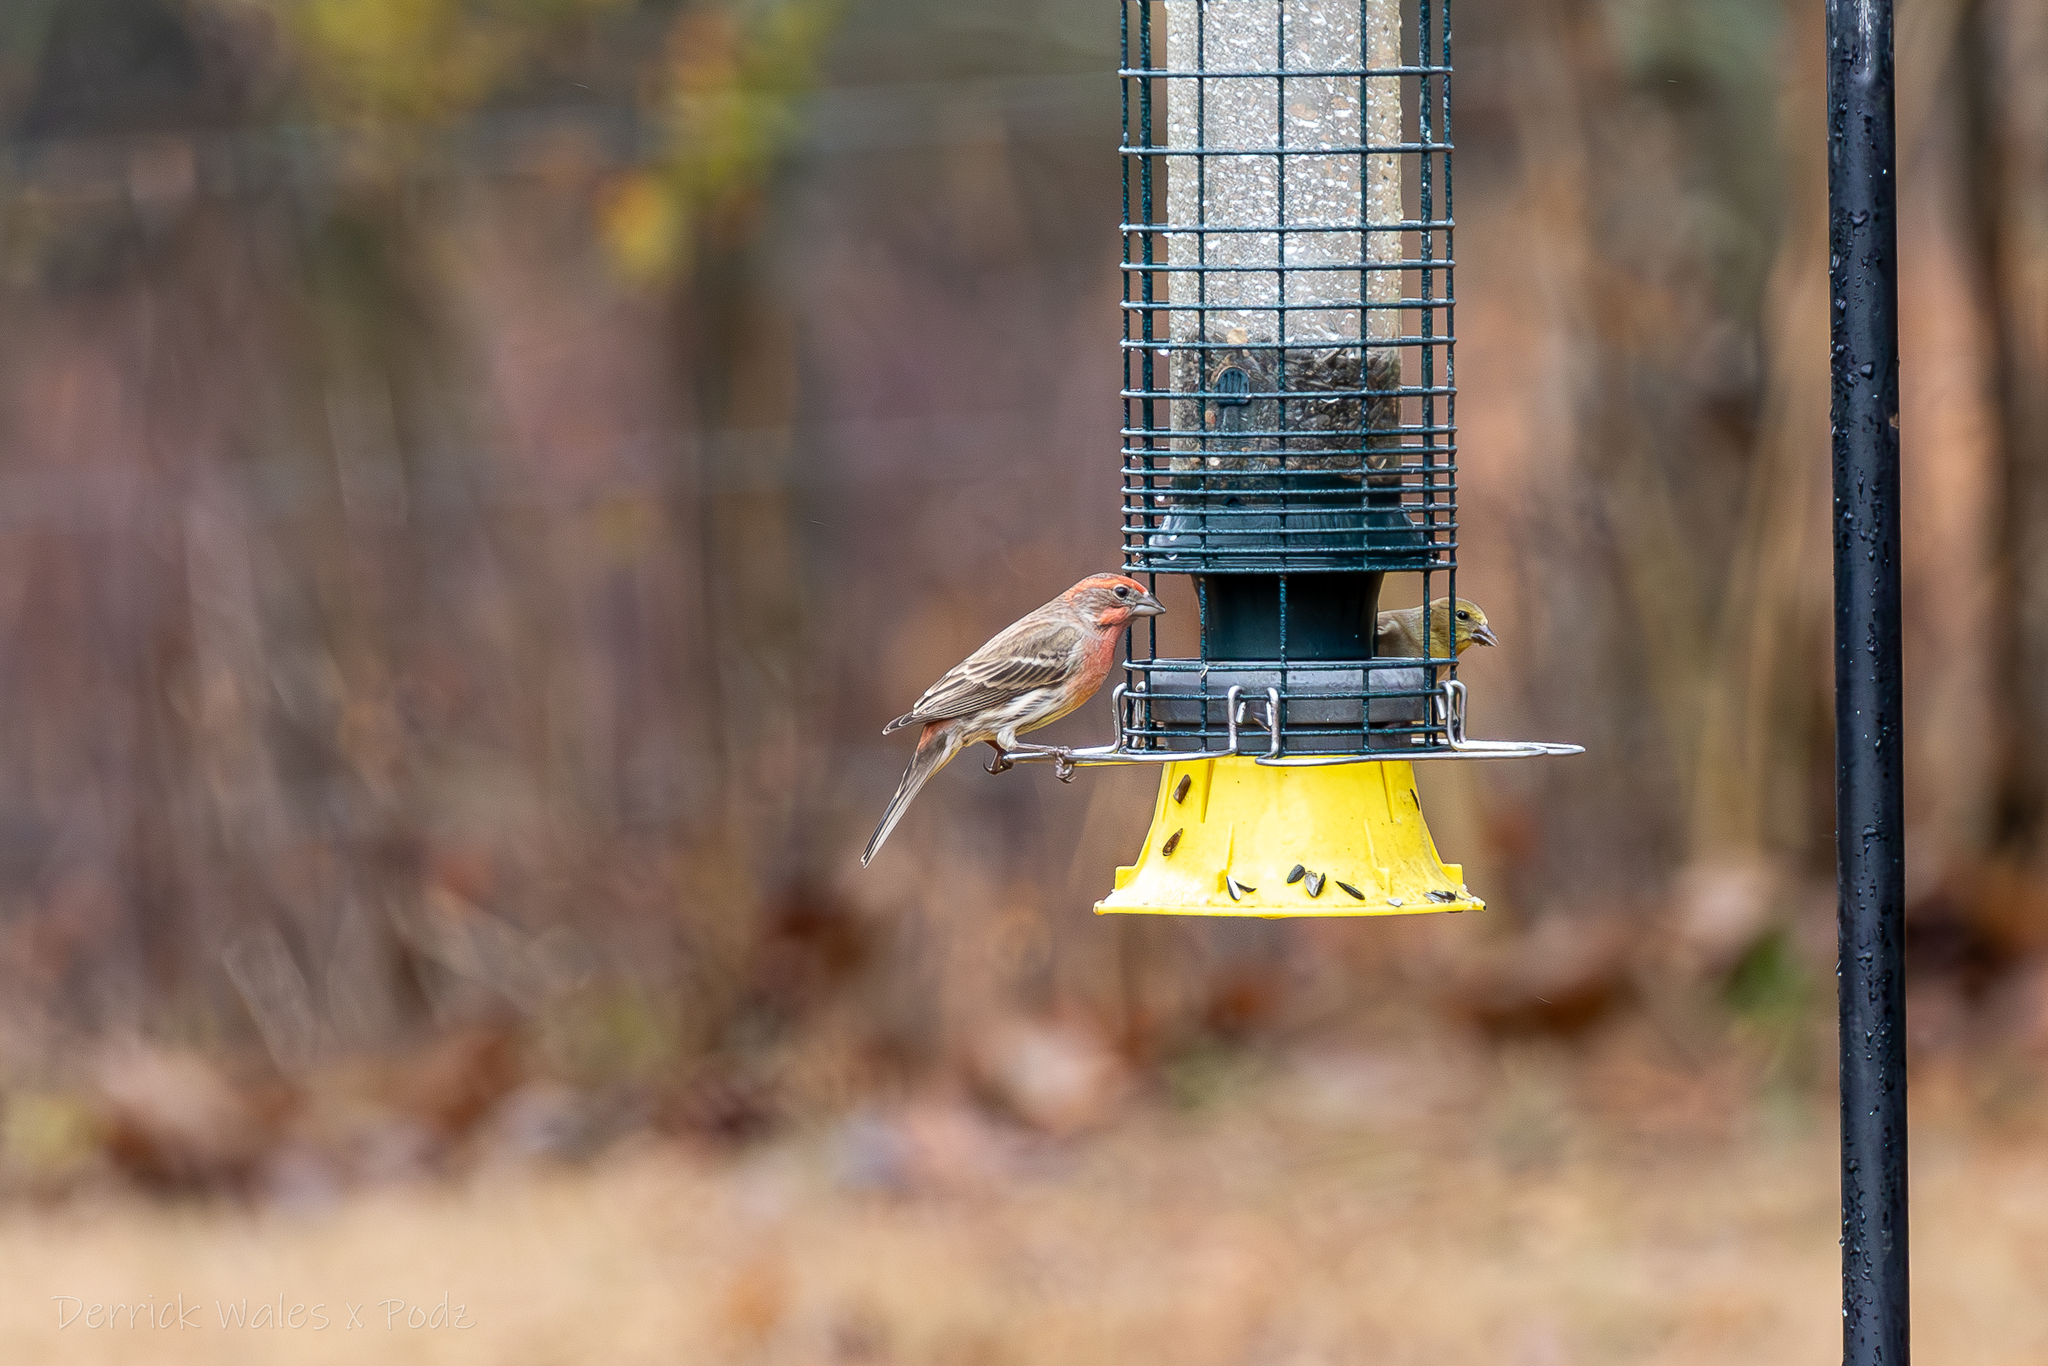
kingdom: Animalia
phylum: Chordata
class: Aves
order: Passeriformes
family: Fringillidae
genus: Haemorhous
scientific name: Haemorhous mexicanus
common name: House finch
